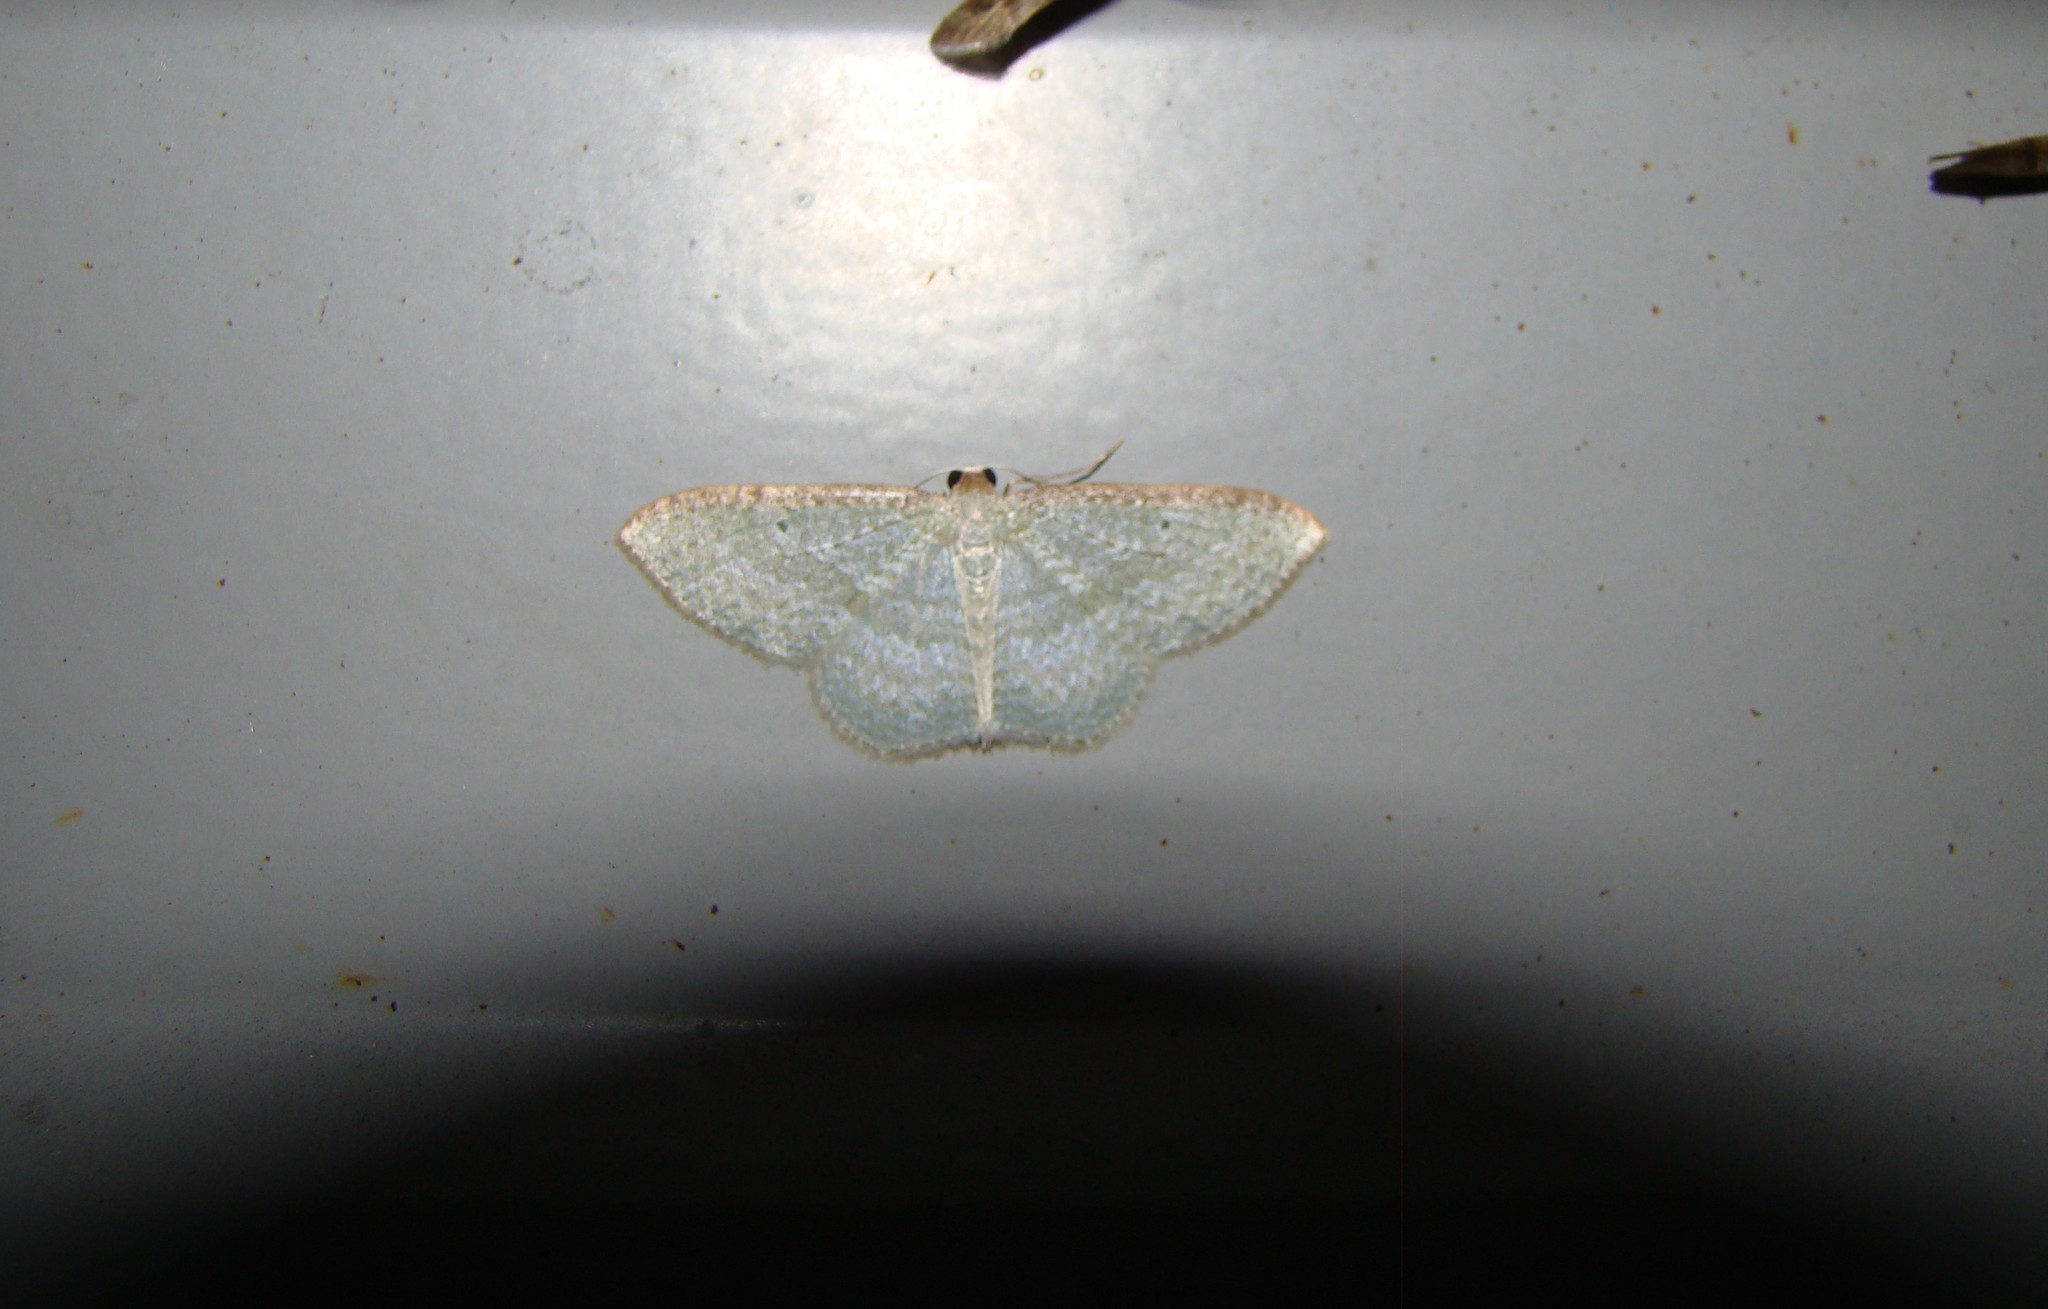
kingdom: Animalia
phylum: Arthropoda
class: Insecta
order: Lepidoptera
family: Geometridae
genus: Poecilasthena
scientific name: Poecilasthena pulchraria
